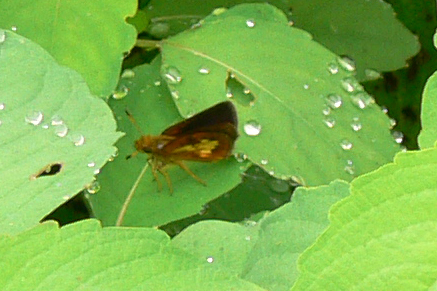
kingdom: Animalia
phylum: Arthropoda
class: Insecta
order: Lepidoptera
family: Hesperiidae
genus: Poanes
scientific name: Poanes massasoit
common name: Mulberrywing
